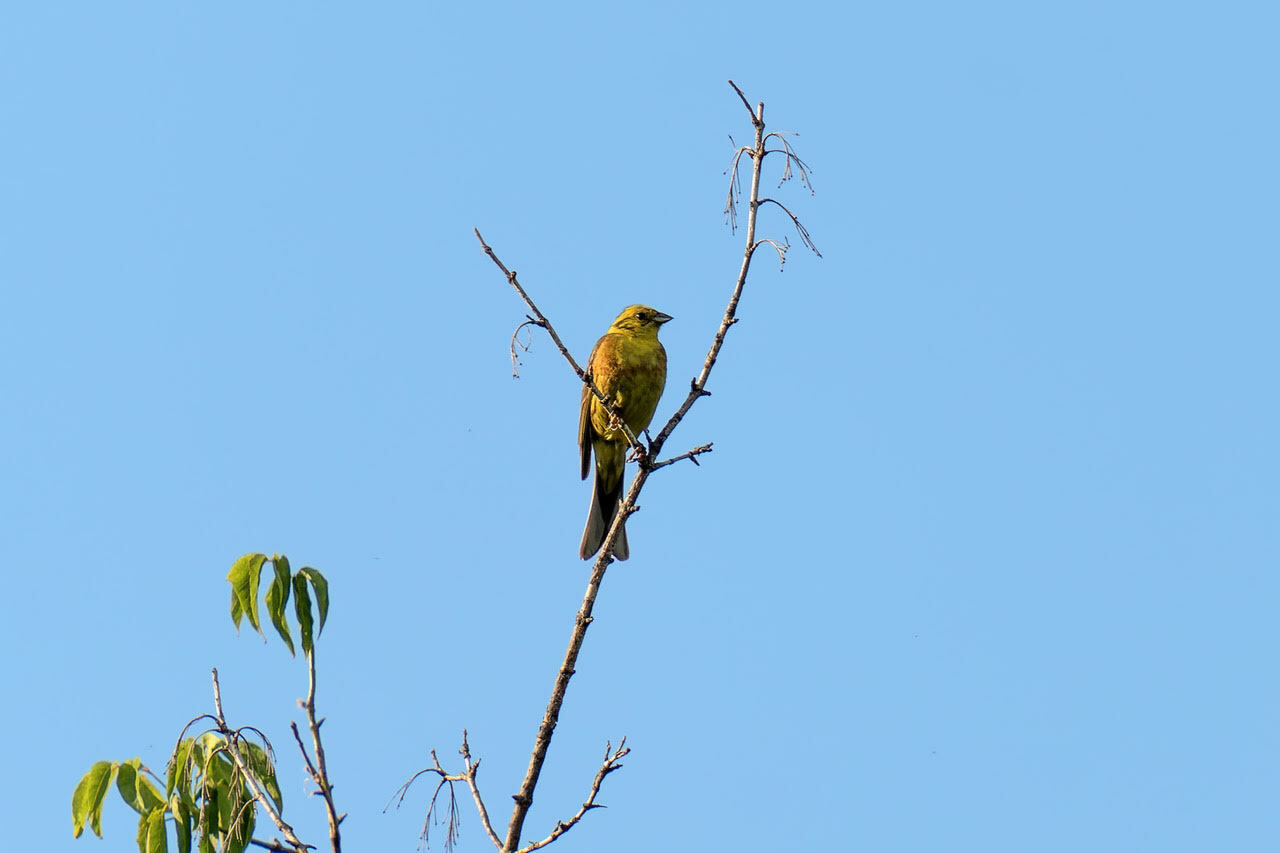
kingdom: Animalia
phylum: Chordata
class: Aves
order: Passeriformes
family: Emberizidae
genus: Emberiza
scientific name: Emberiza citrinella
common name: Yellowhammer
